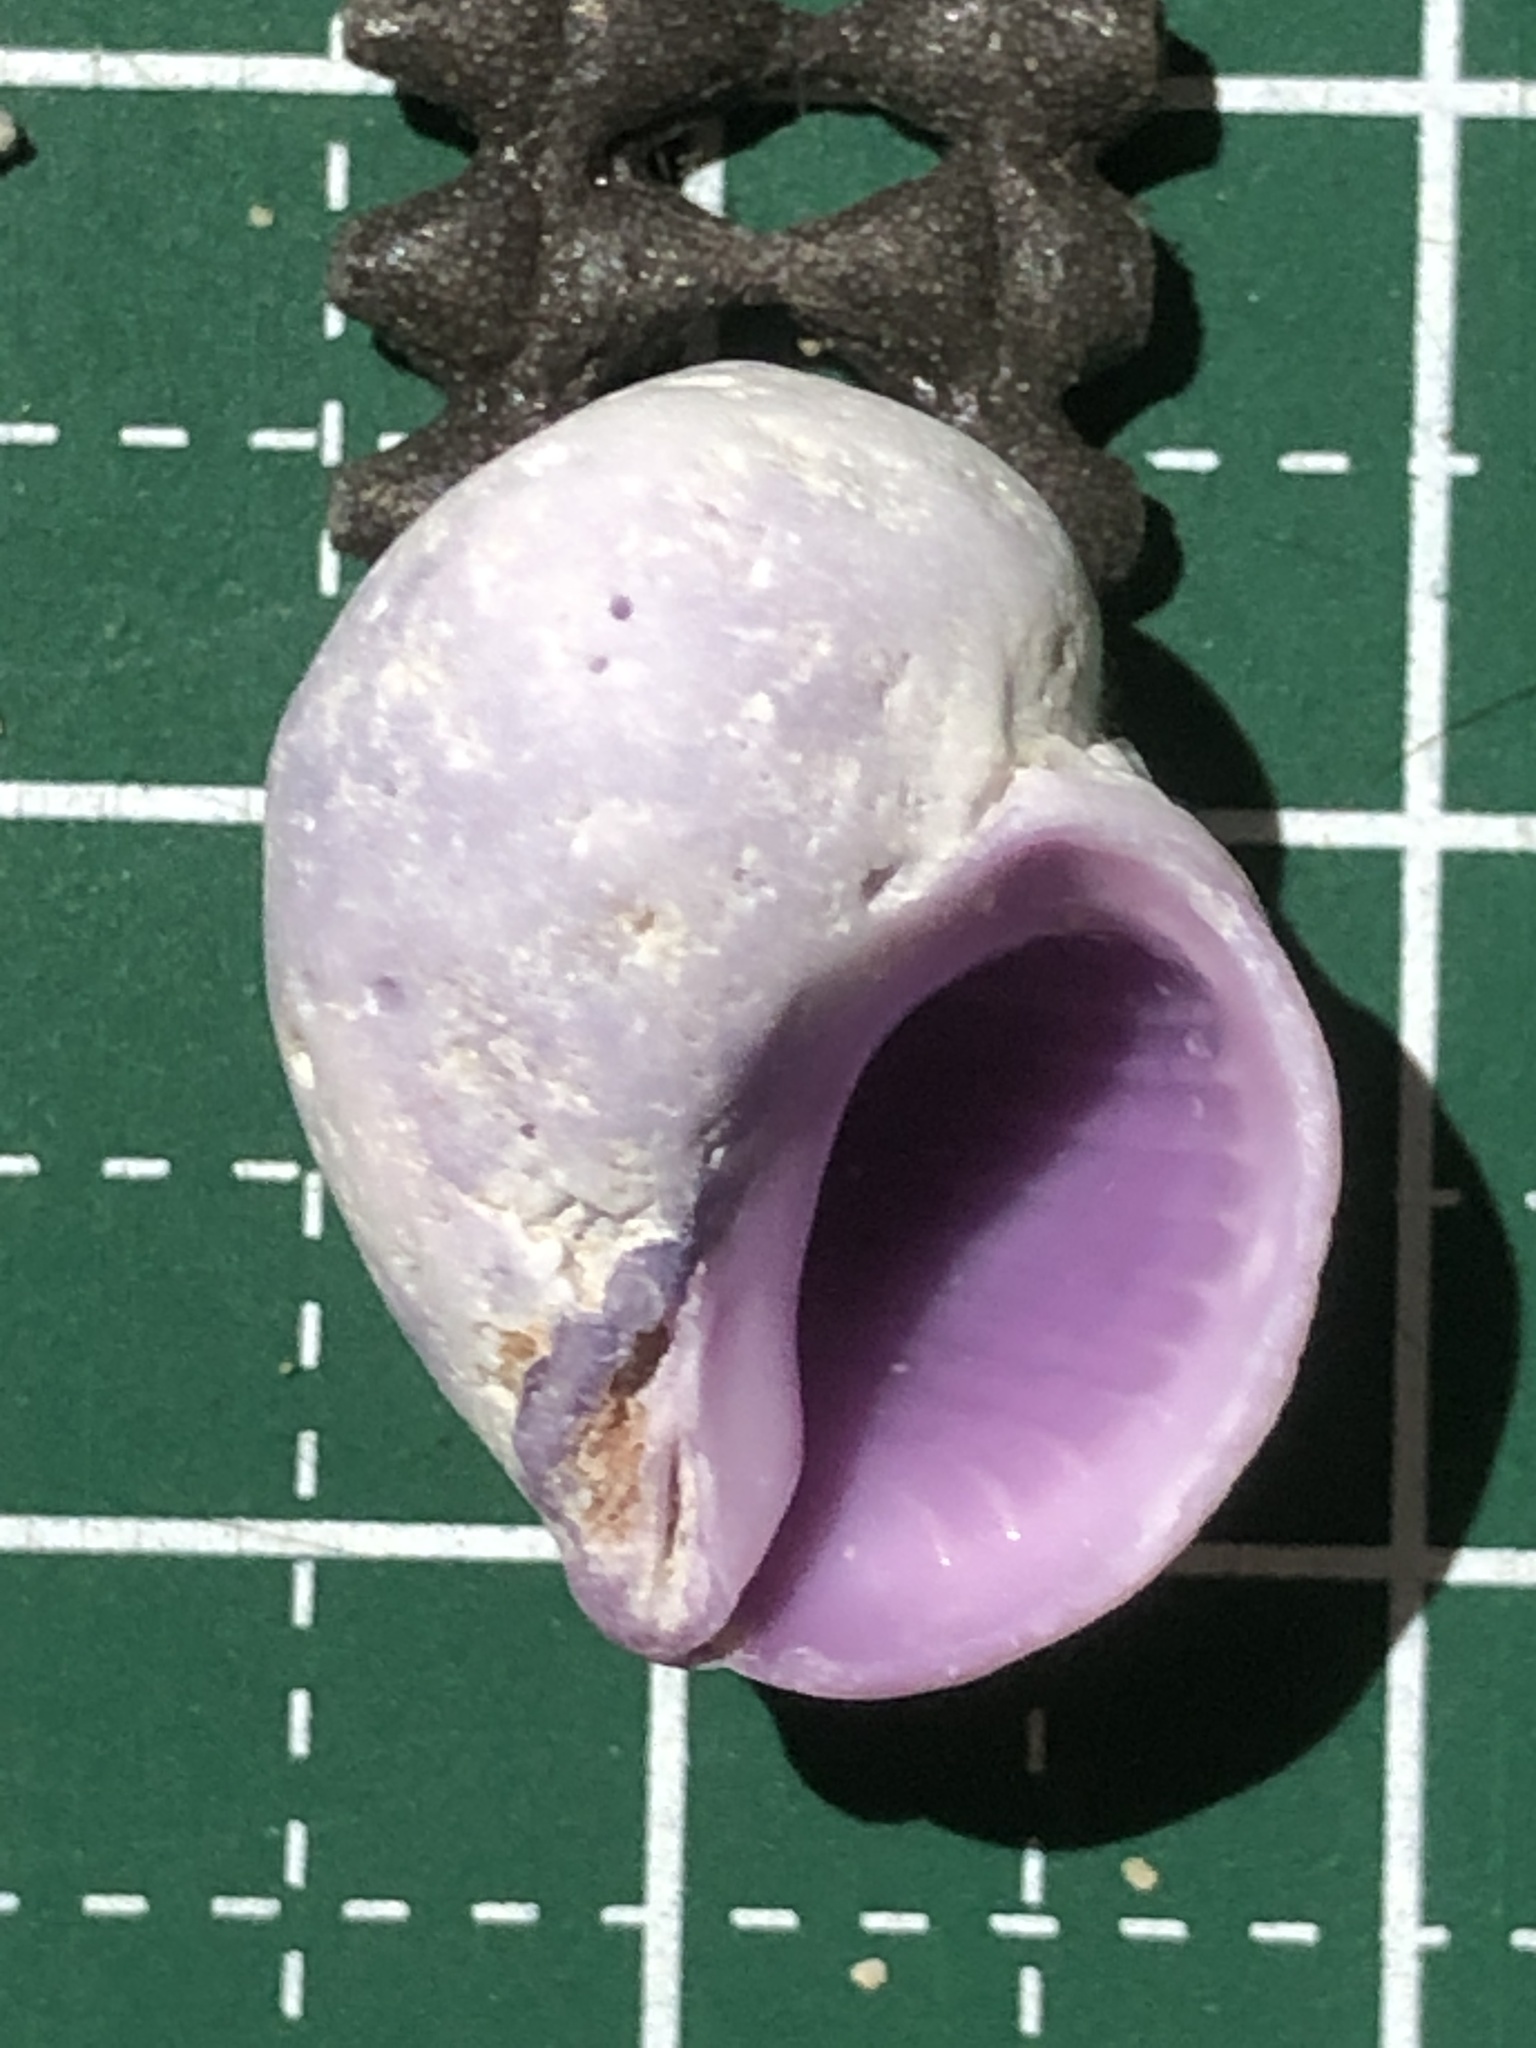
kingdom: Animalia
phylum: Mollusca
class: Gastropoda
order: Neogastropoda
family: Muricidae
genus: Coralliophila
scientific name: Coralliophila violacea
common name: Purple coral snail
